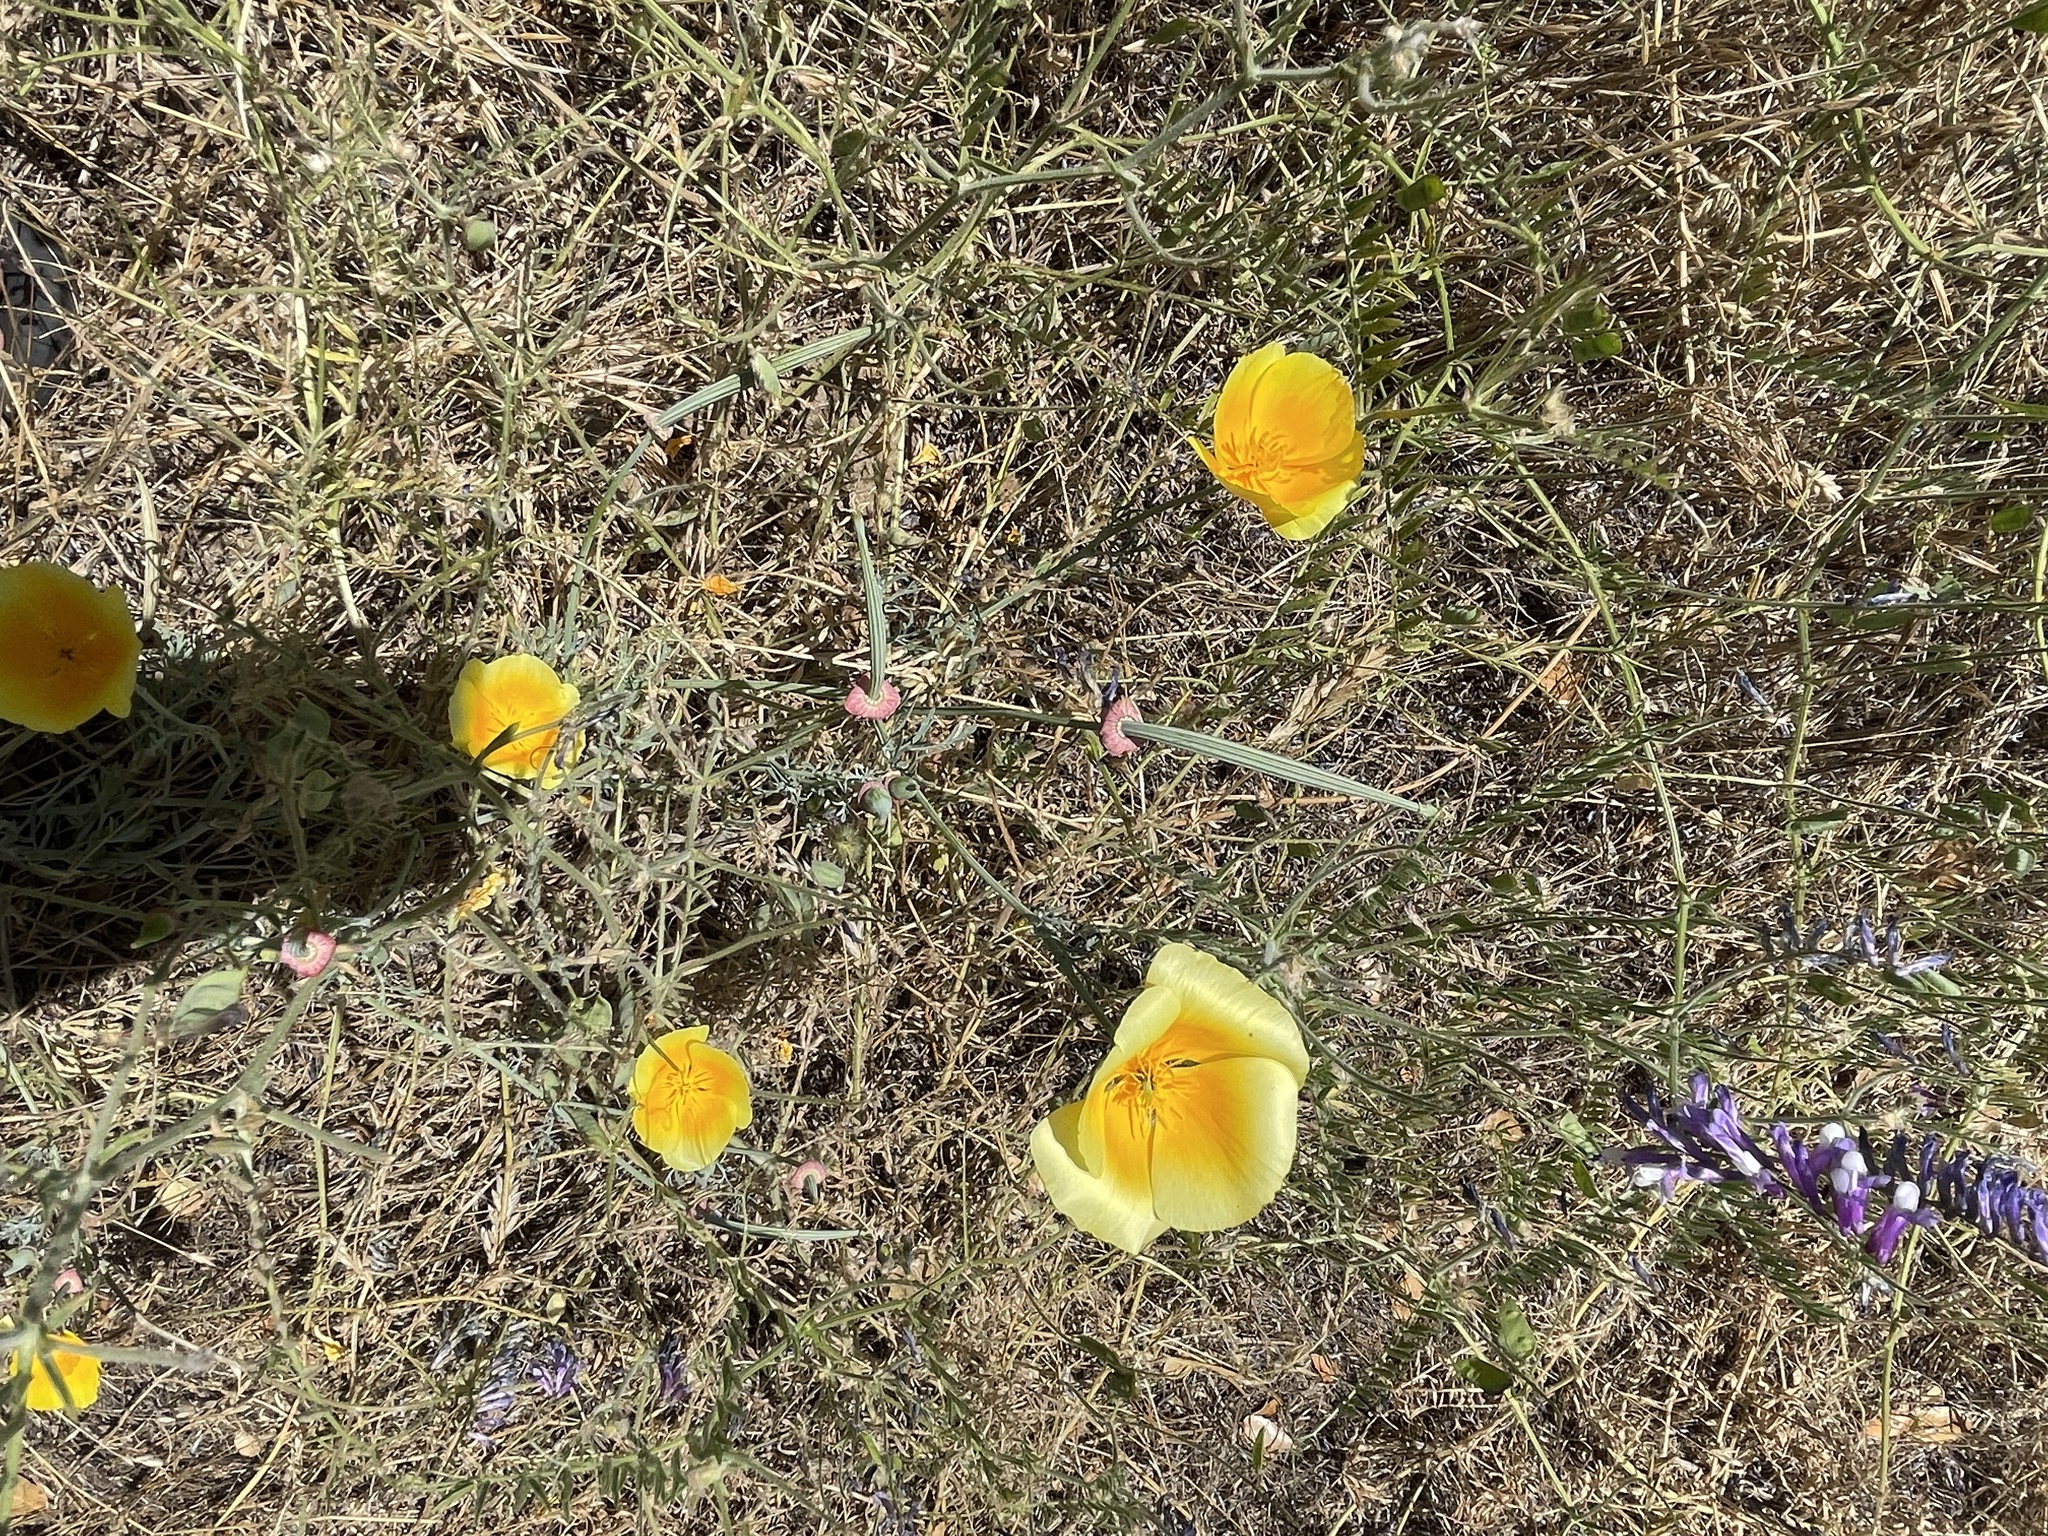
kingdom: Plantae
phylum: Tracheophyta
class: Magnoliopsida
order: Ranunculales
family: Papaveraceae
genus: Eschscholzia
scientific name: Eschscholzia californica
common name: California poppy
